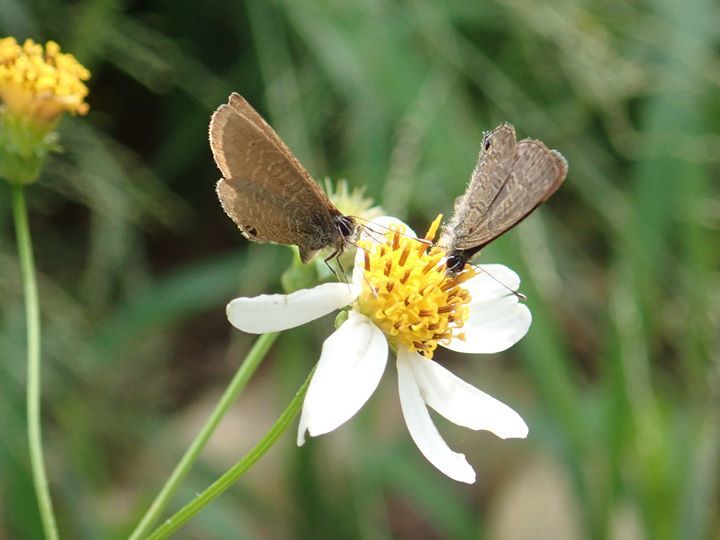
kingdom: Animalia
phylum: Arthropoda
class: Insecta
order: Lepidoptera
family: Lycaenidae
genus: Prosotas
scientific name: Prosotas nora
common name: Common line blue
